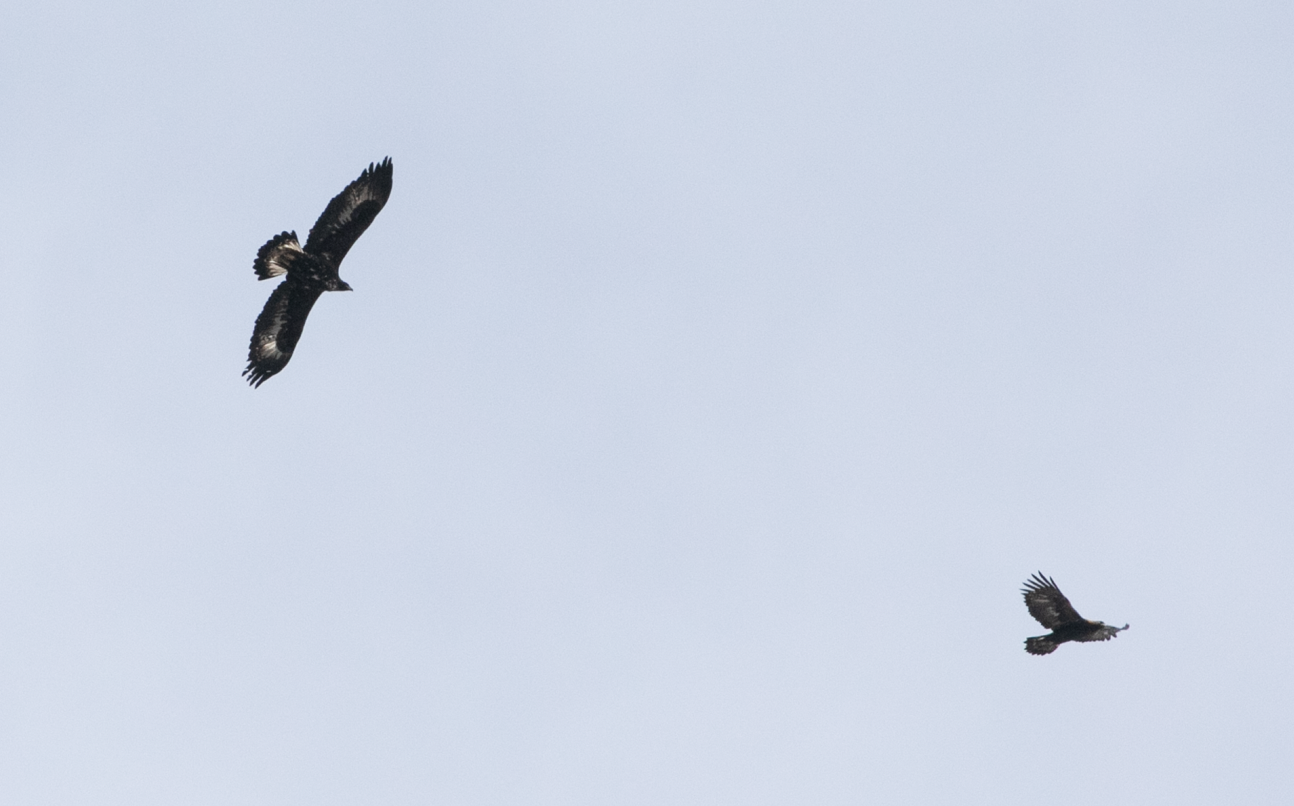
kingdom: Animalia
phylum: Chordata
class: Aves
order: Accipitriformes
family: Accipitridae
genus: Aquila
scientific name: Aquila chrysaetos
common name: Golden eagle
